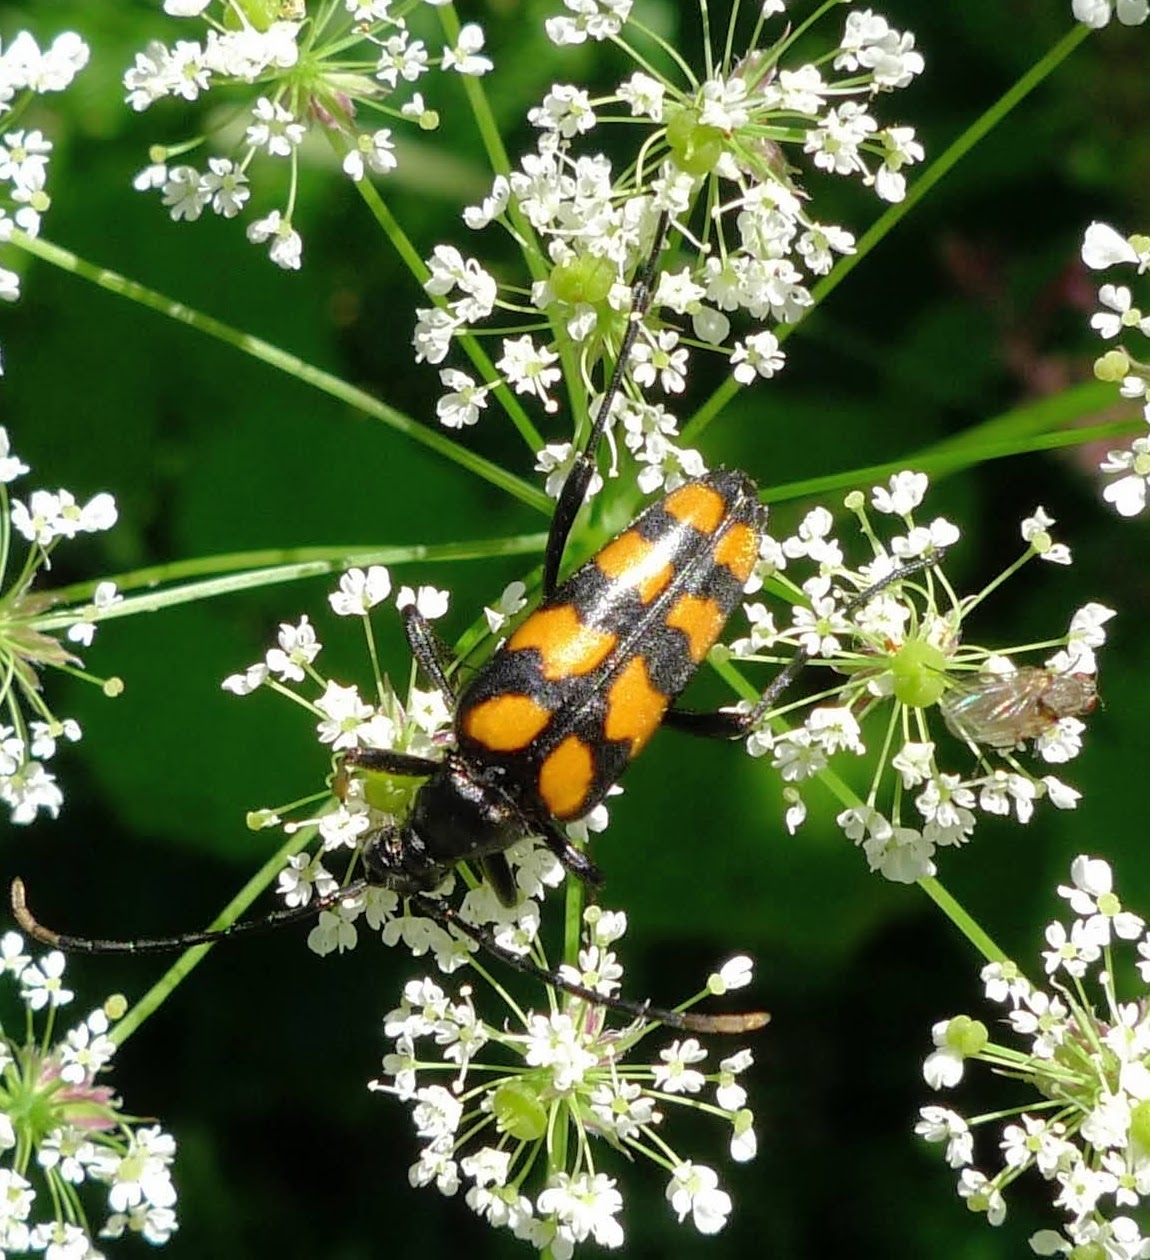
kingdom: Animalia
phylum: Arthropoda
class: Insecta
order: Coleoptera
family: Cerambycidae
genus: Leptura
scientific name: Leptura quadrifasciata
